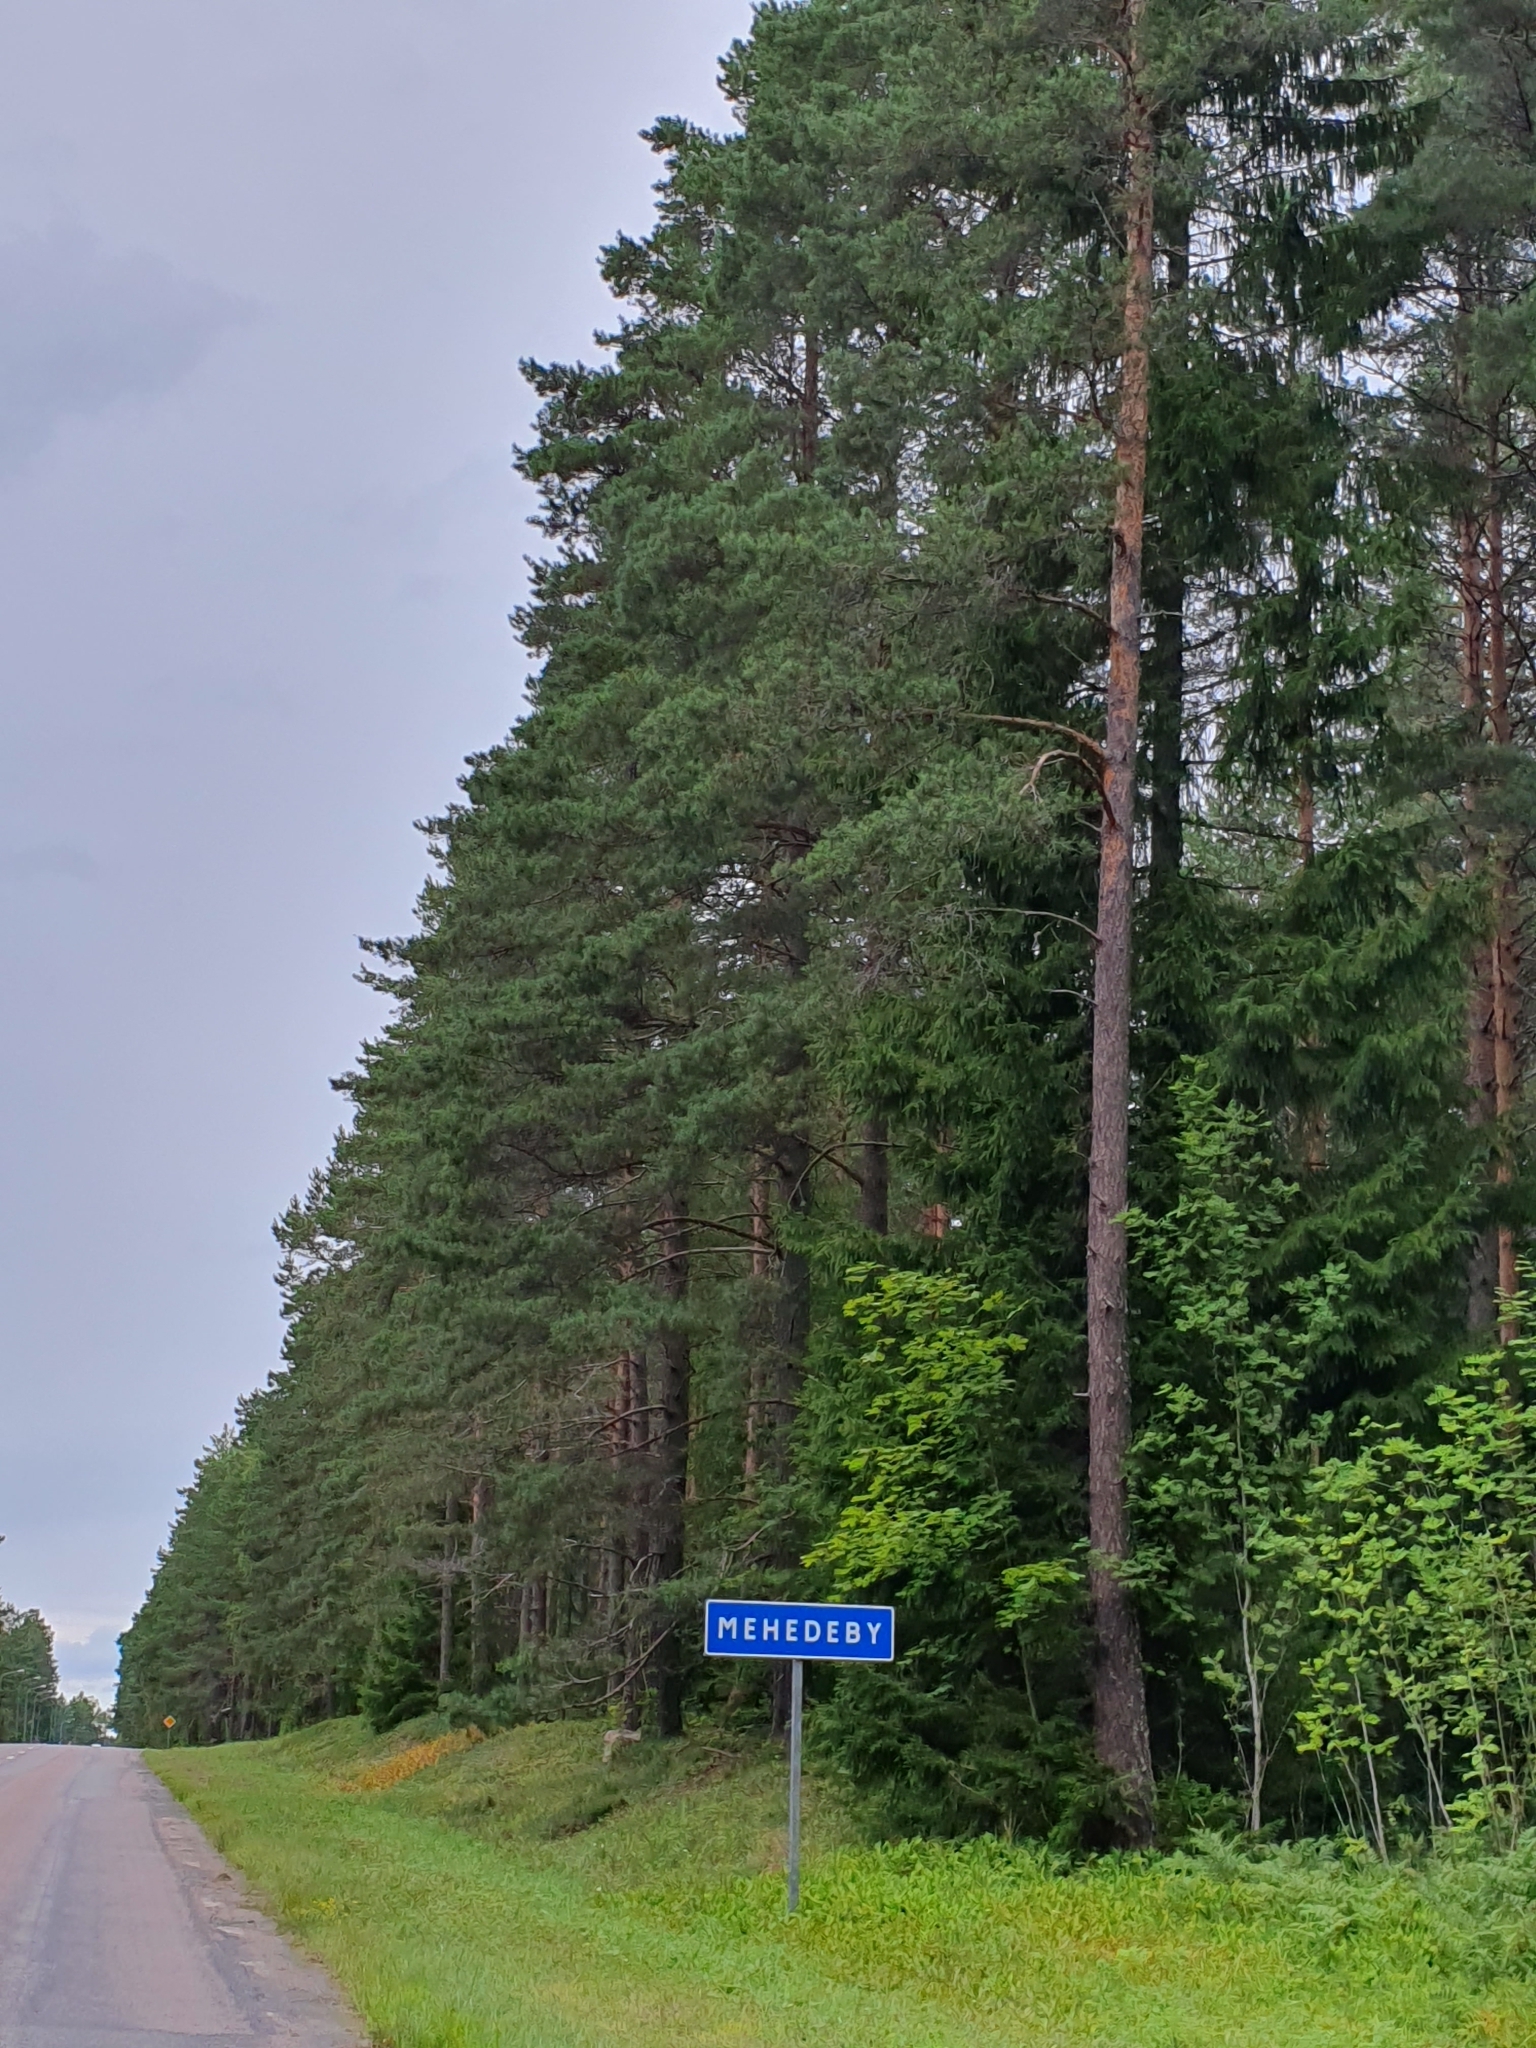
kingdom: Plantae
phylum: Tracheophyta
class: Pinopsida
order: Pinales
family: Pinaceae
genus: Pinus
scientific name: Pinus sylvestris
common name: Scots pine
